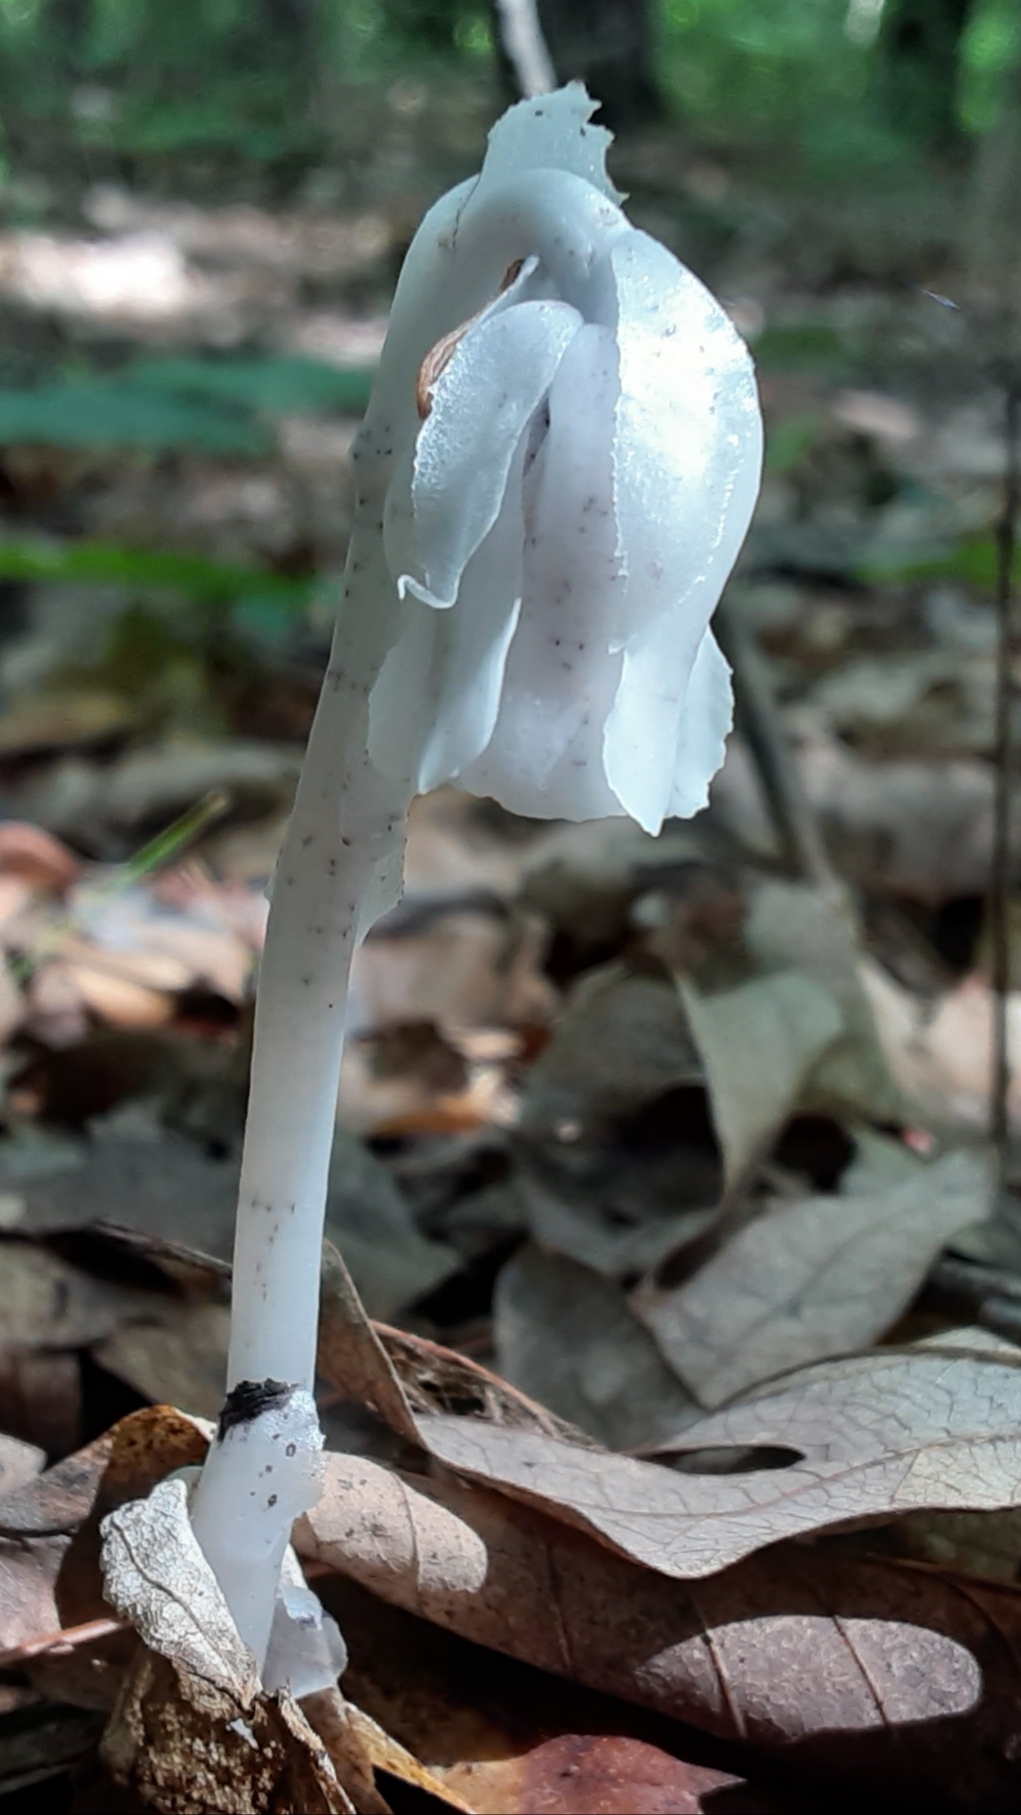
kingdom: Plantae
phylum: Tracheophyta
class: Magnoliopsida
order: Ericales
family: Ericaceae
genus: Monotropa
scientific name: Monotropa uniflora
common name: Convulsion root
